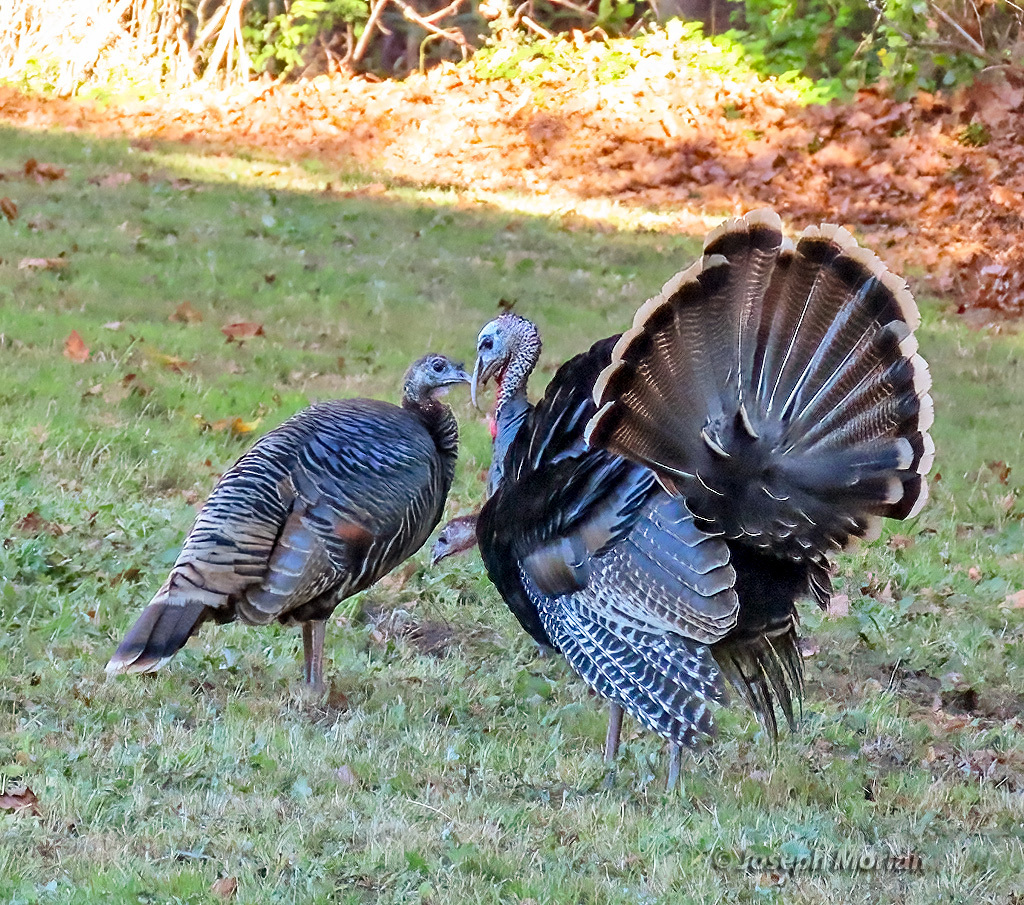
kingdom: Animalia
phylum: Chordata
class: Aves
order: Galliformes
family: Phasianidae
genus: Meleagris
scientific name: Meleagris gallopavo
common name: Wild turkey
